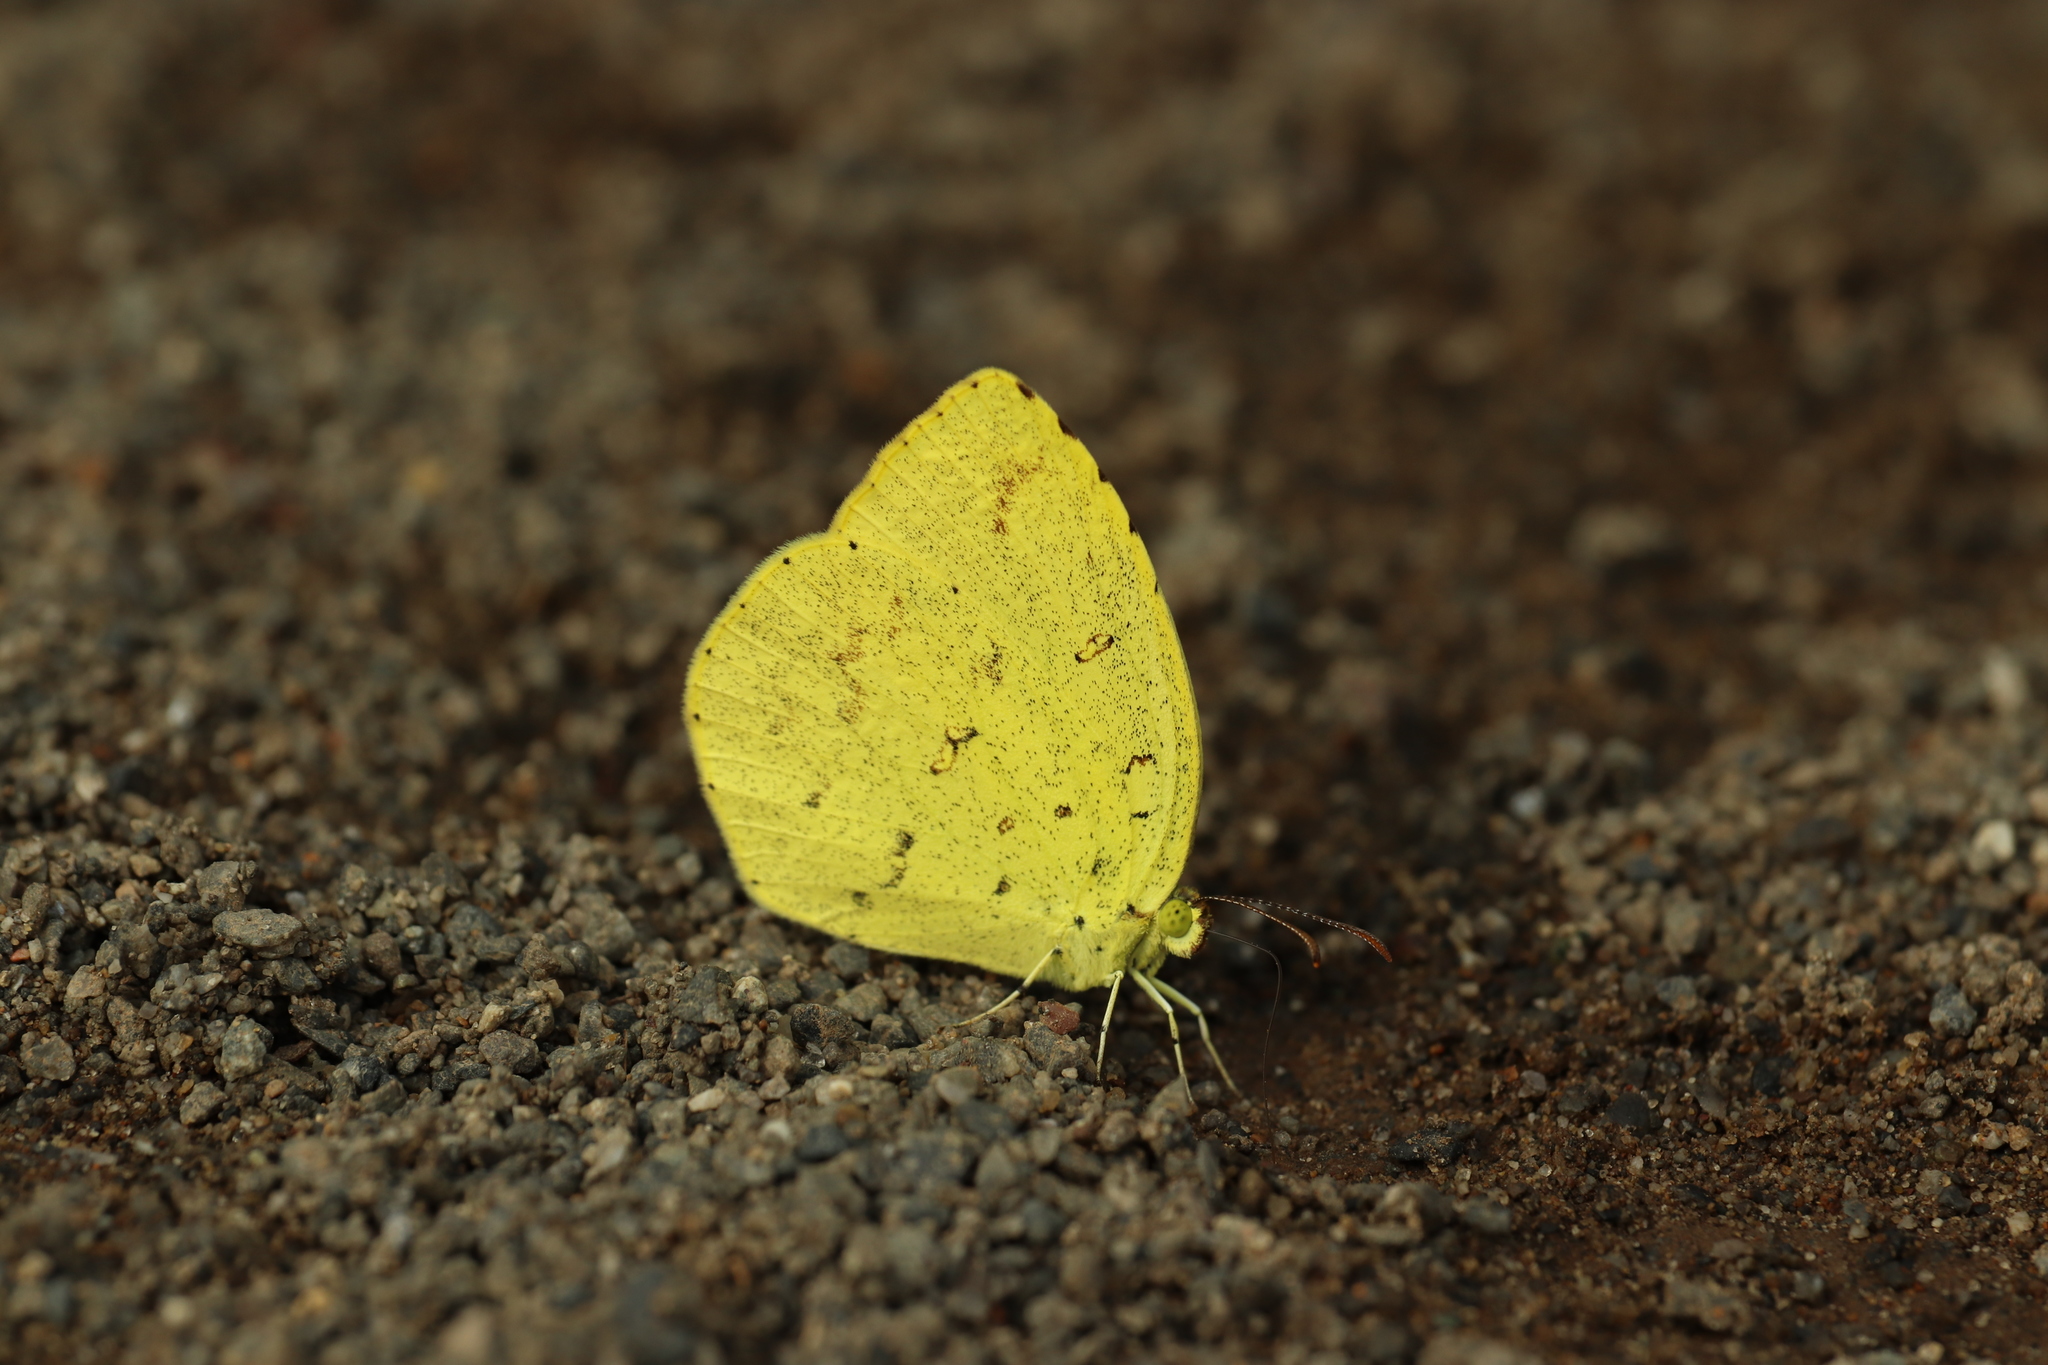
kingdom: Animalia
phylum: Arthropoda
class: Insecta
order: Lepidoptera
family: Pieridae
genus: Eurema
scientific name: Eurema mandarina
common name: Japanese common grass yellow
